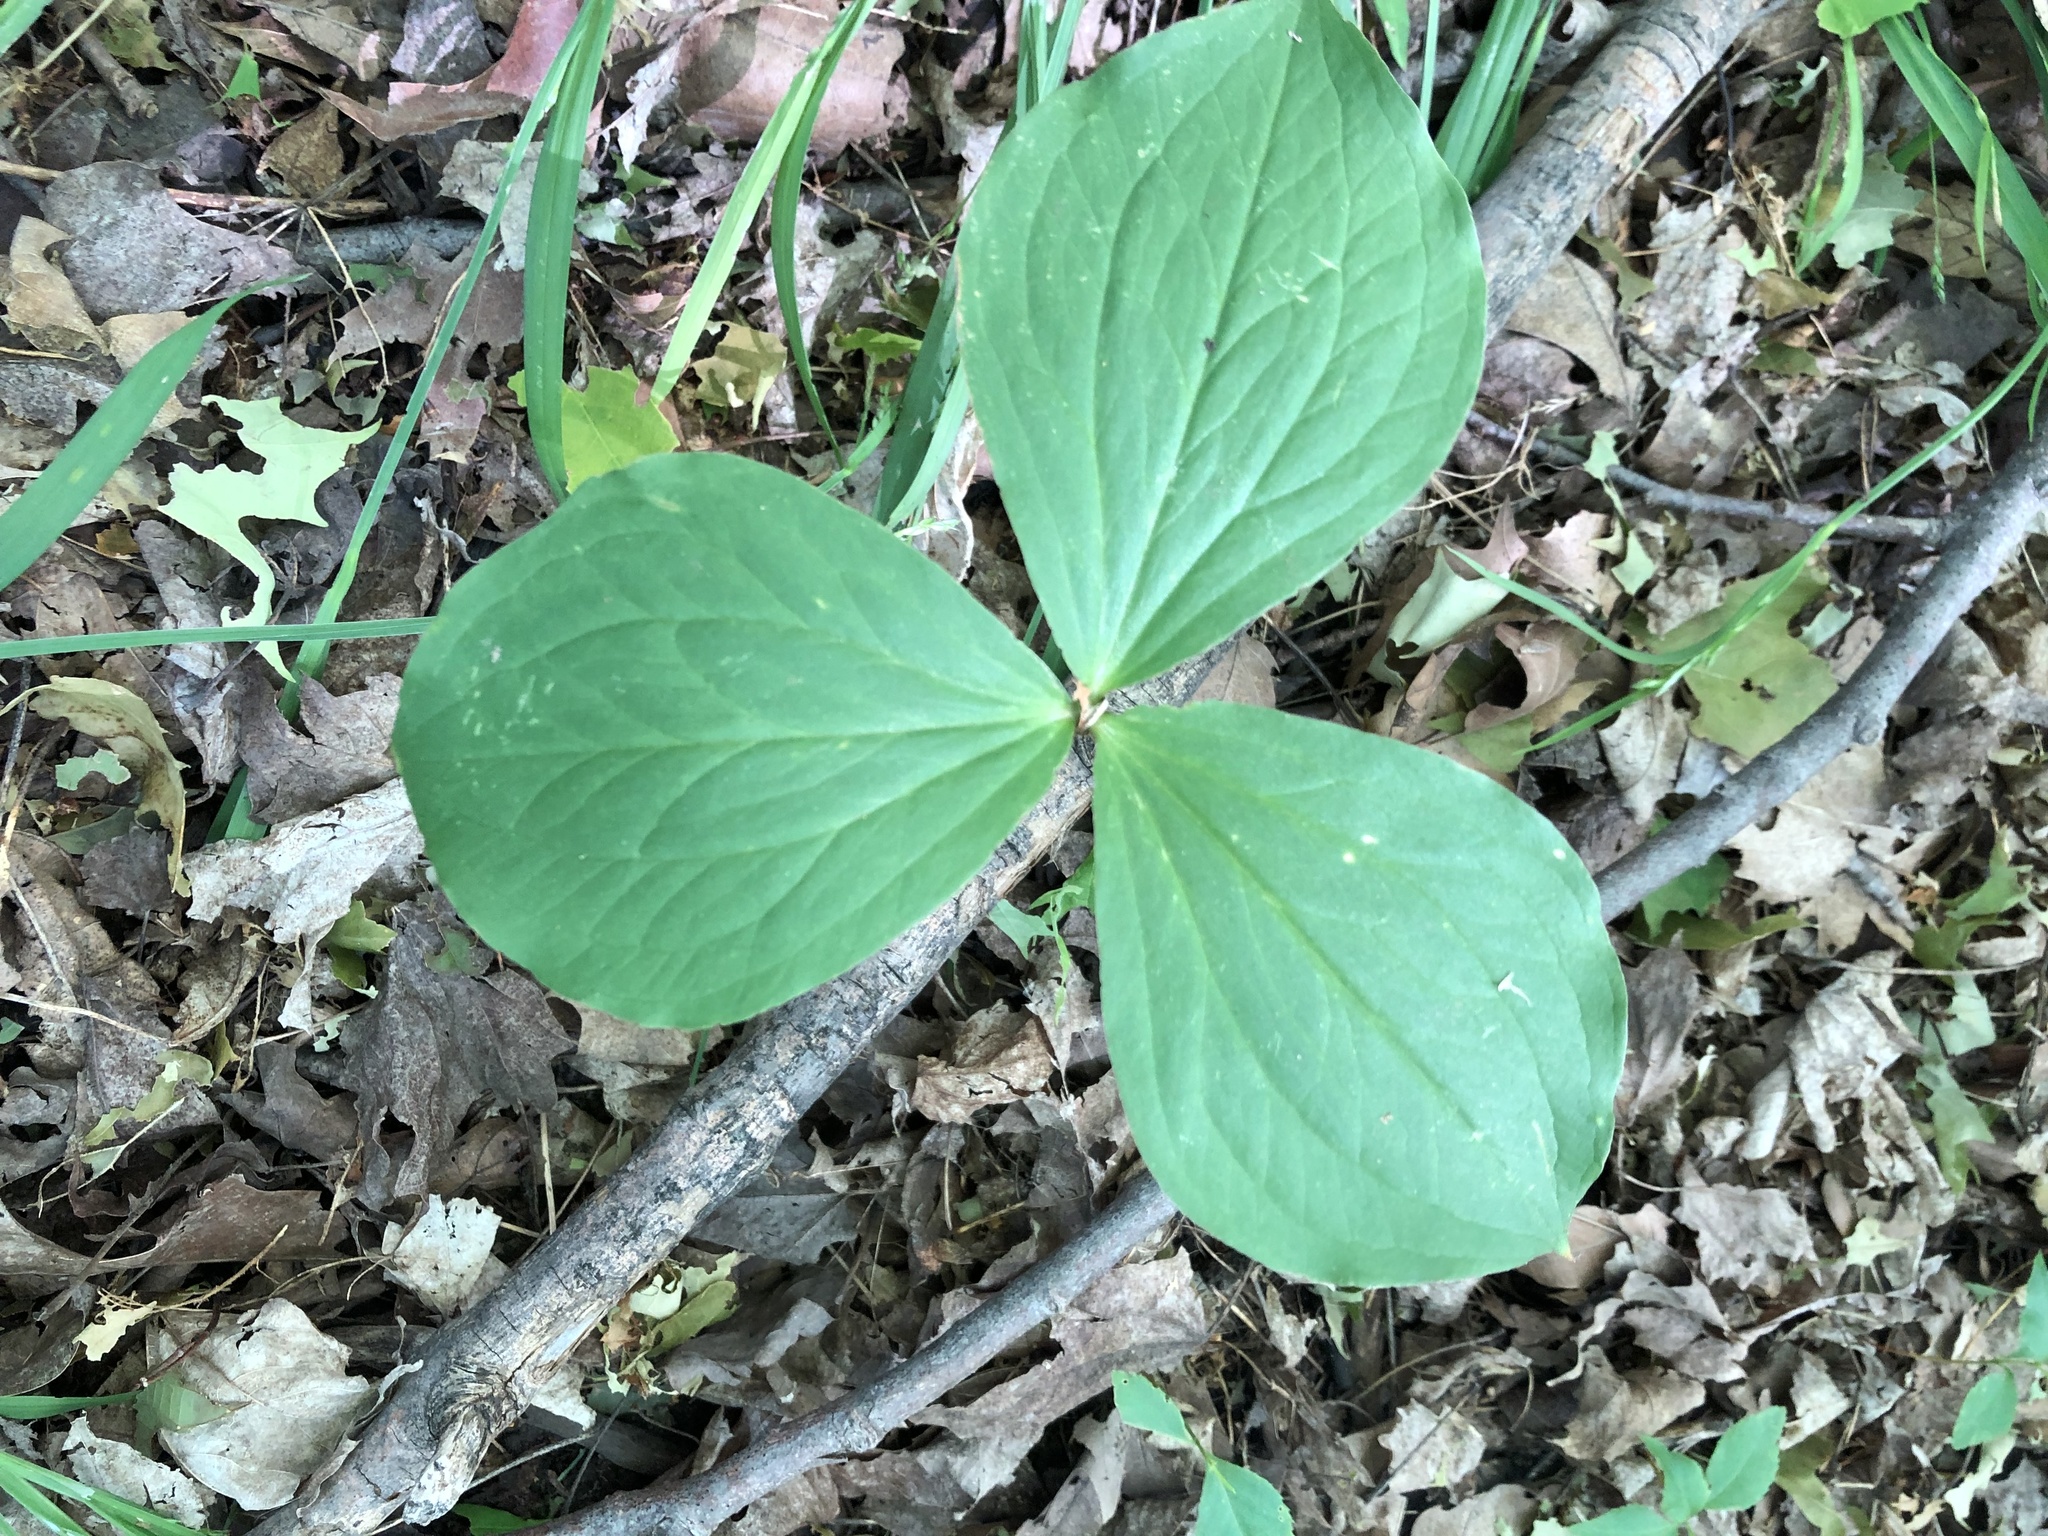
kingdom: Plantae
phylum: Tracheophyta
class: Liliopsida
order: Liliales
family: Melanthiaceae
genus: Trillium
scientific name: Trillium grandiflorum
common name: Great white trillium
